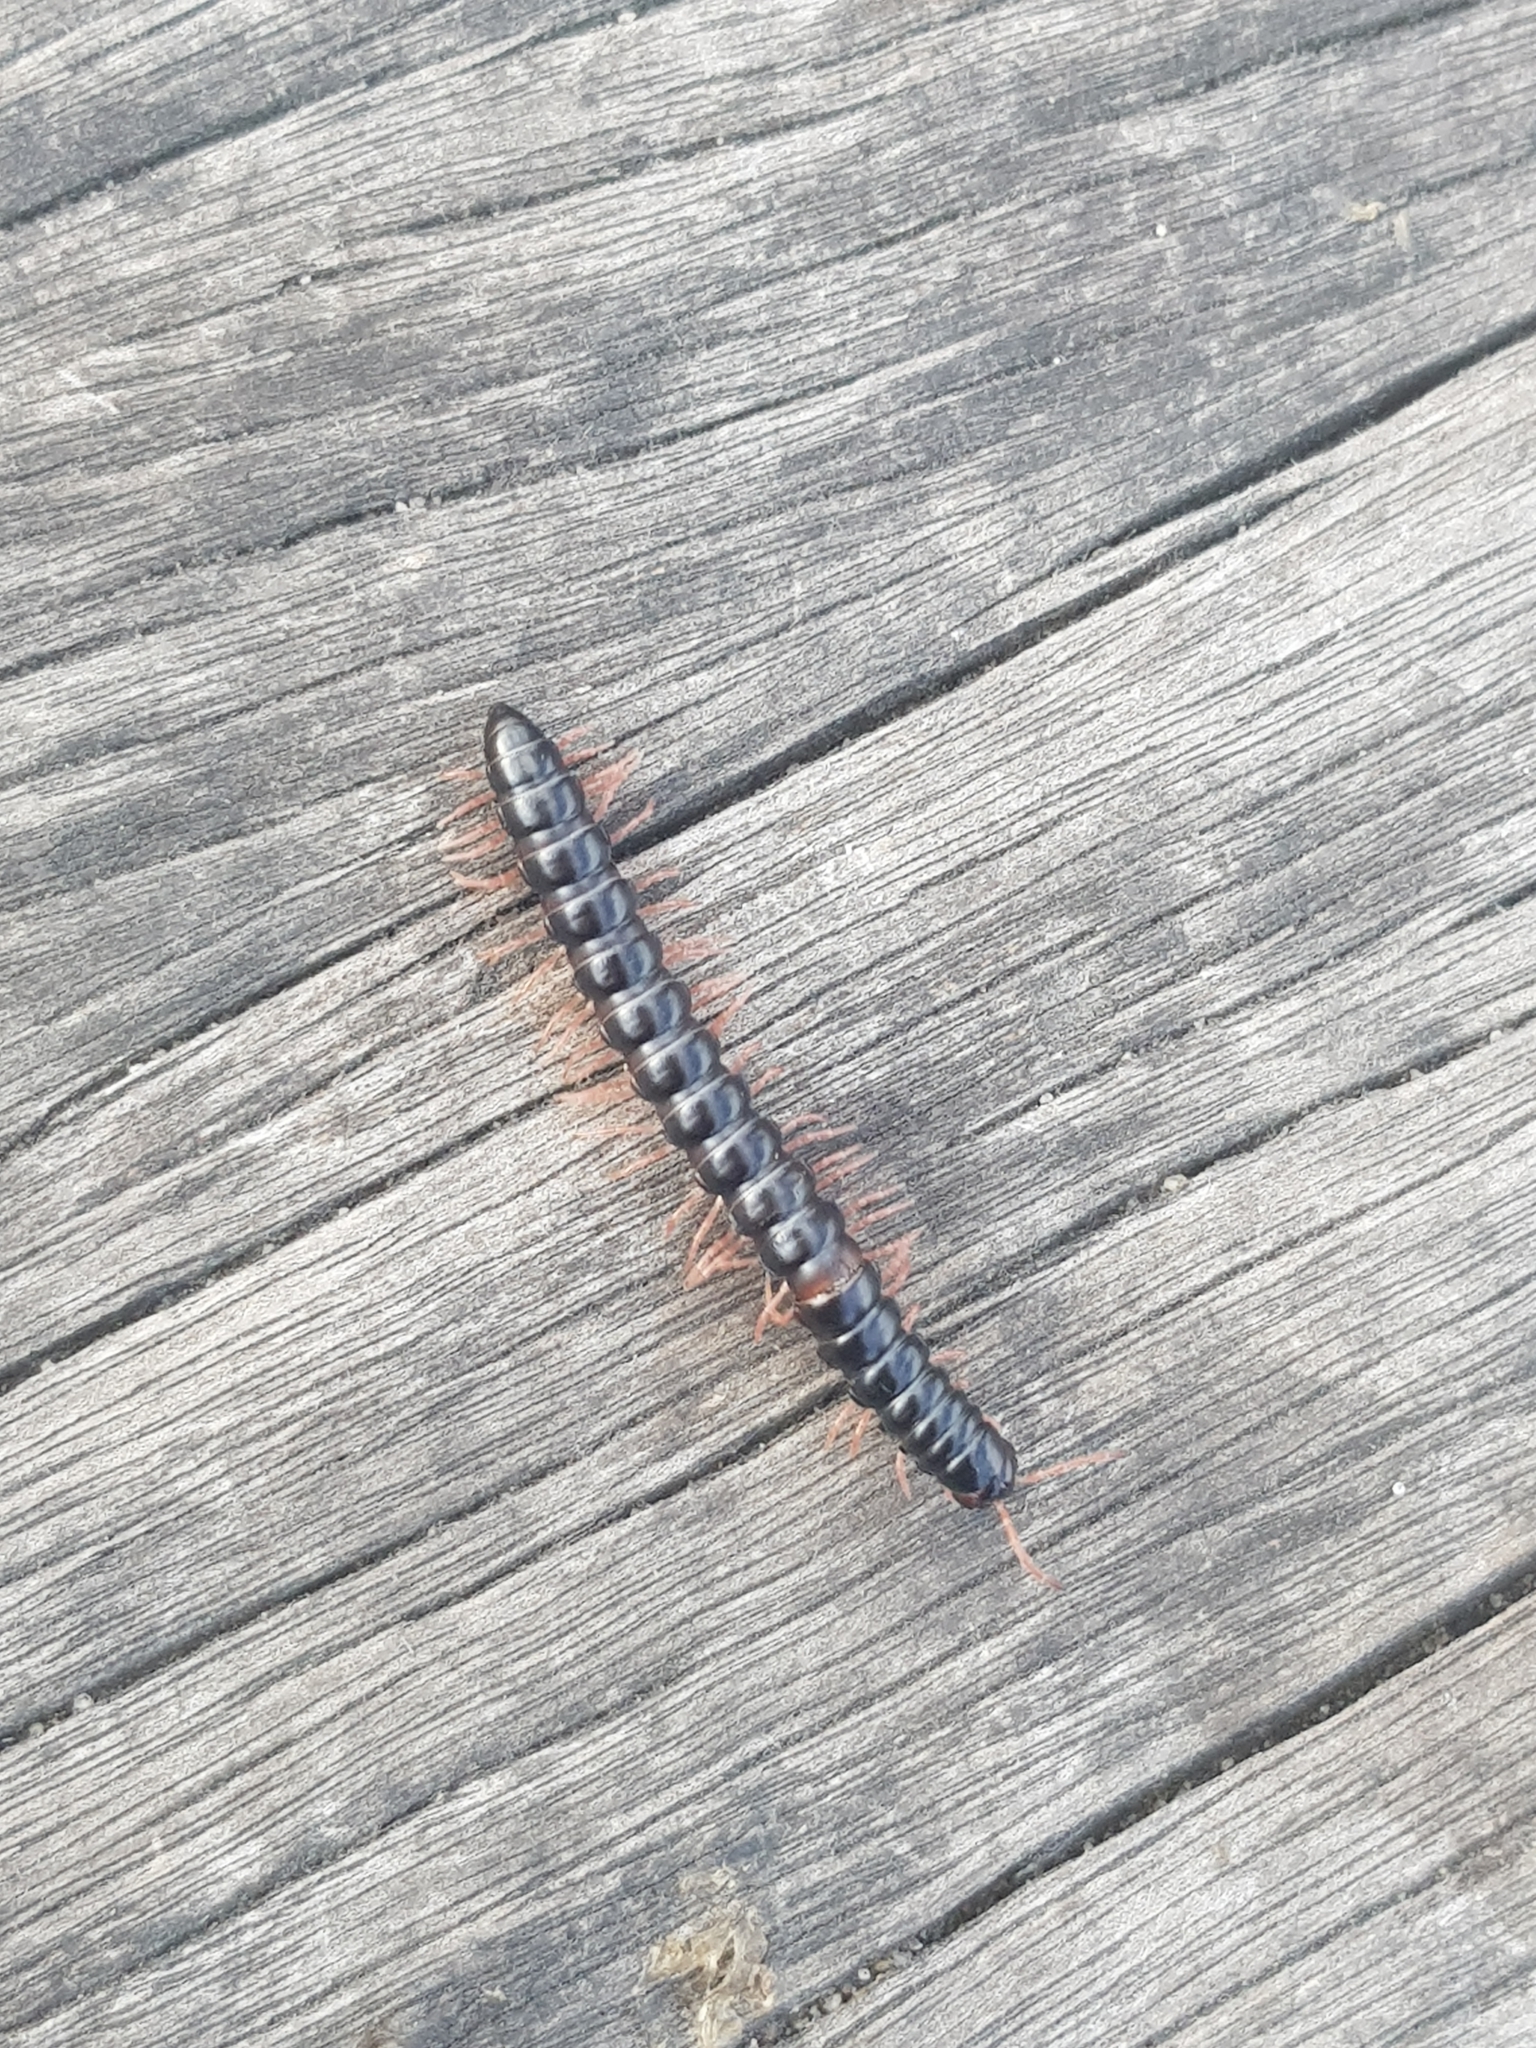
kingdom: Animalia
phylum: Arthropoda
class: Diplopoda
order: Polydesmida
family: Paradoxosomatidae
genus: Heterocladosoma
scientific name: Heterocladosoma
